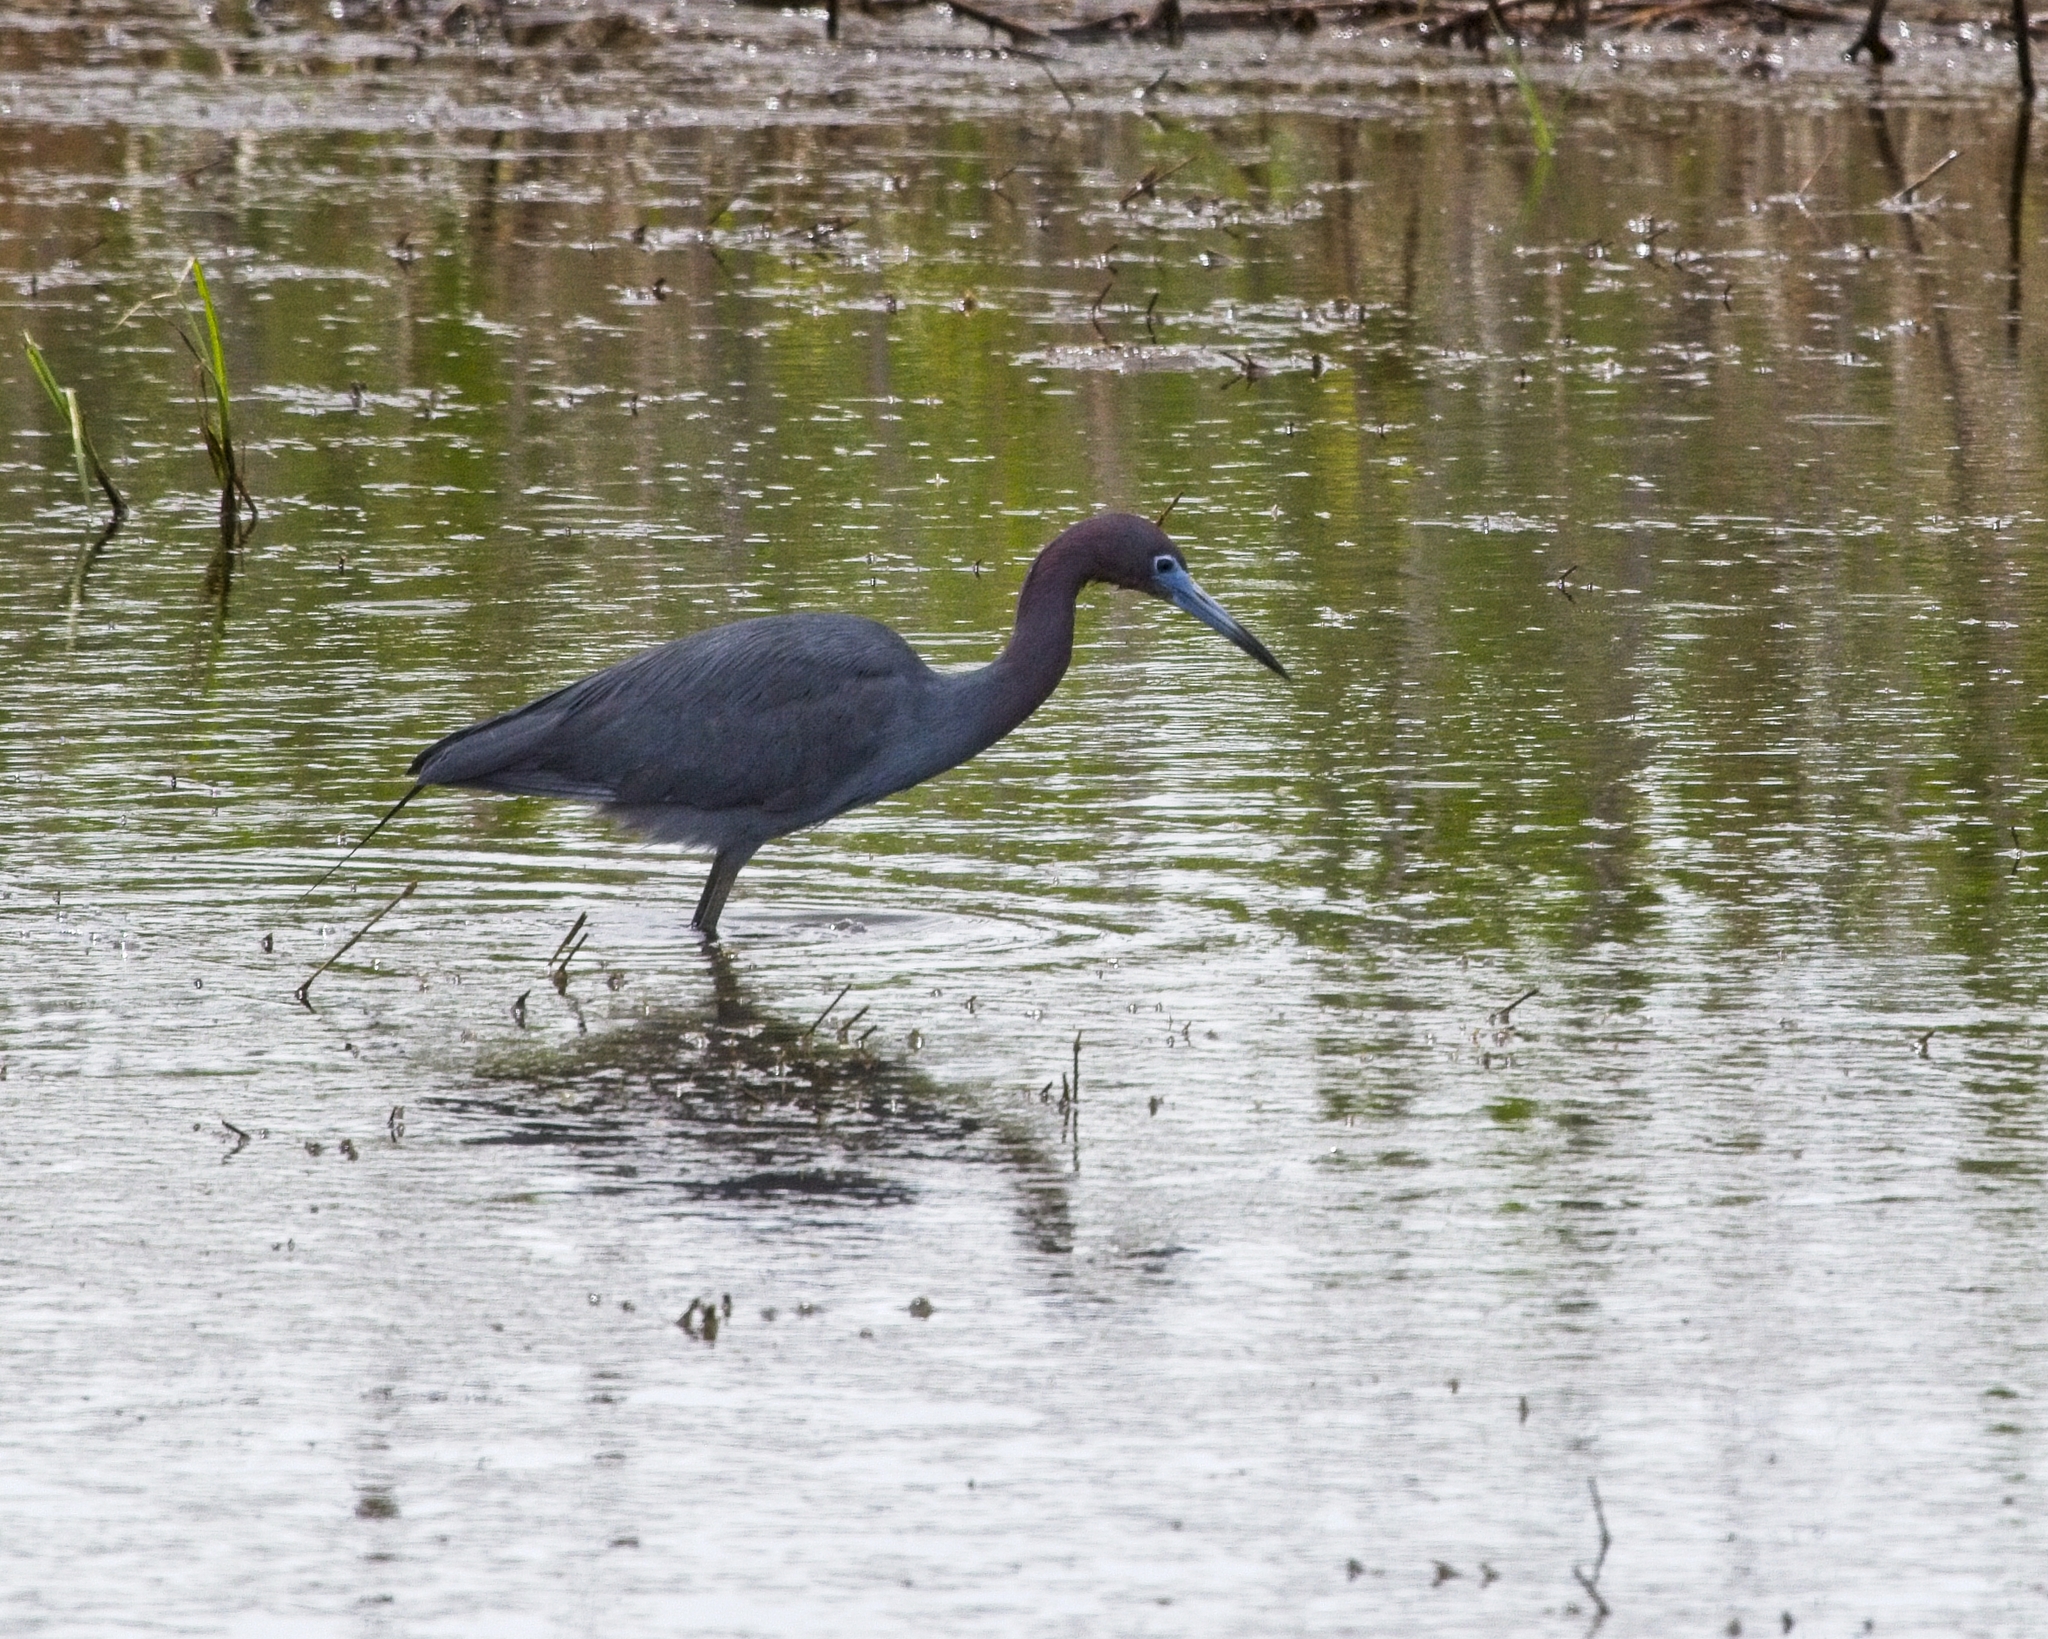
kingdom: Animalia
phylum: Chordata
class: Aves
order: Pelecaniformes
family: Ardeidae
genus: Egretta
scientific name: Egretta caerulea
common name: Little blue heron
